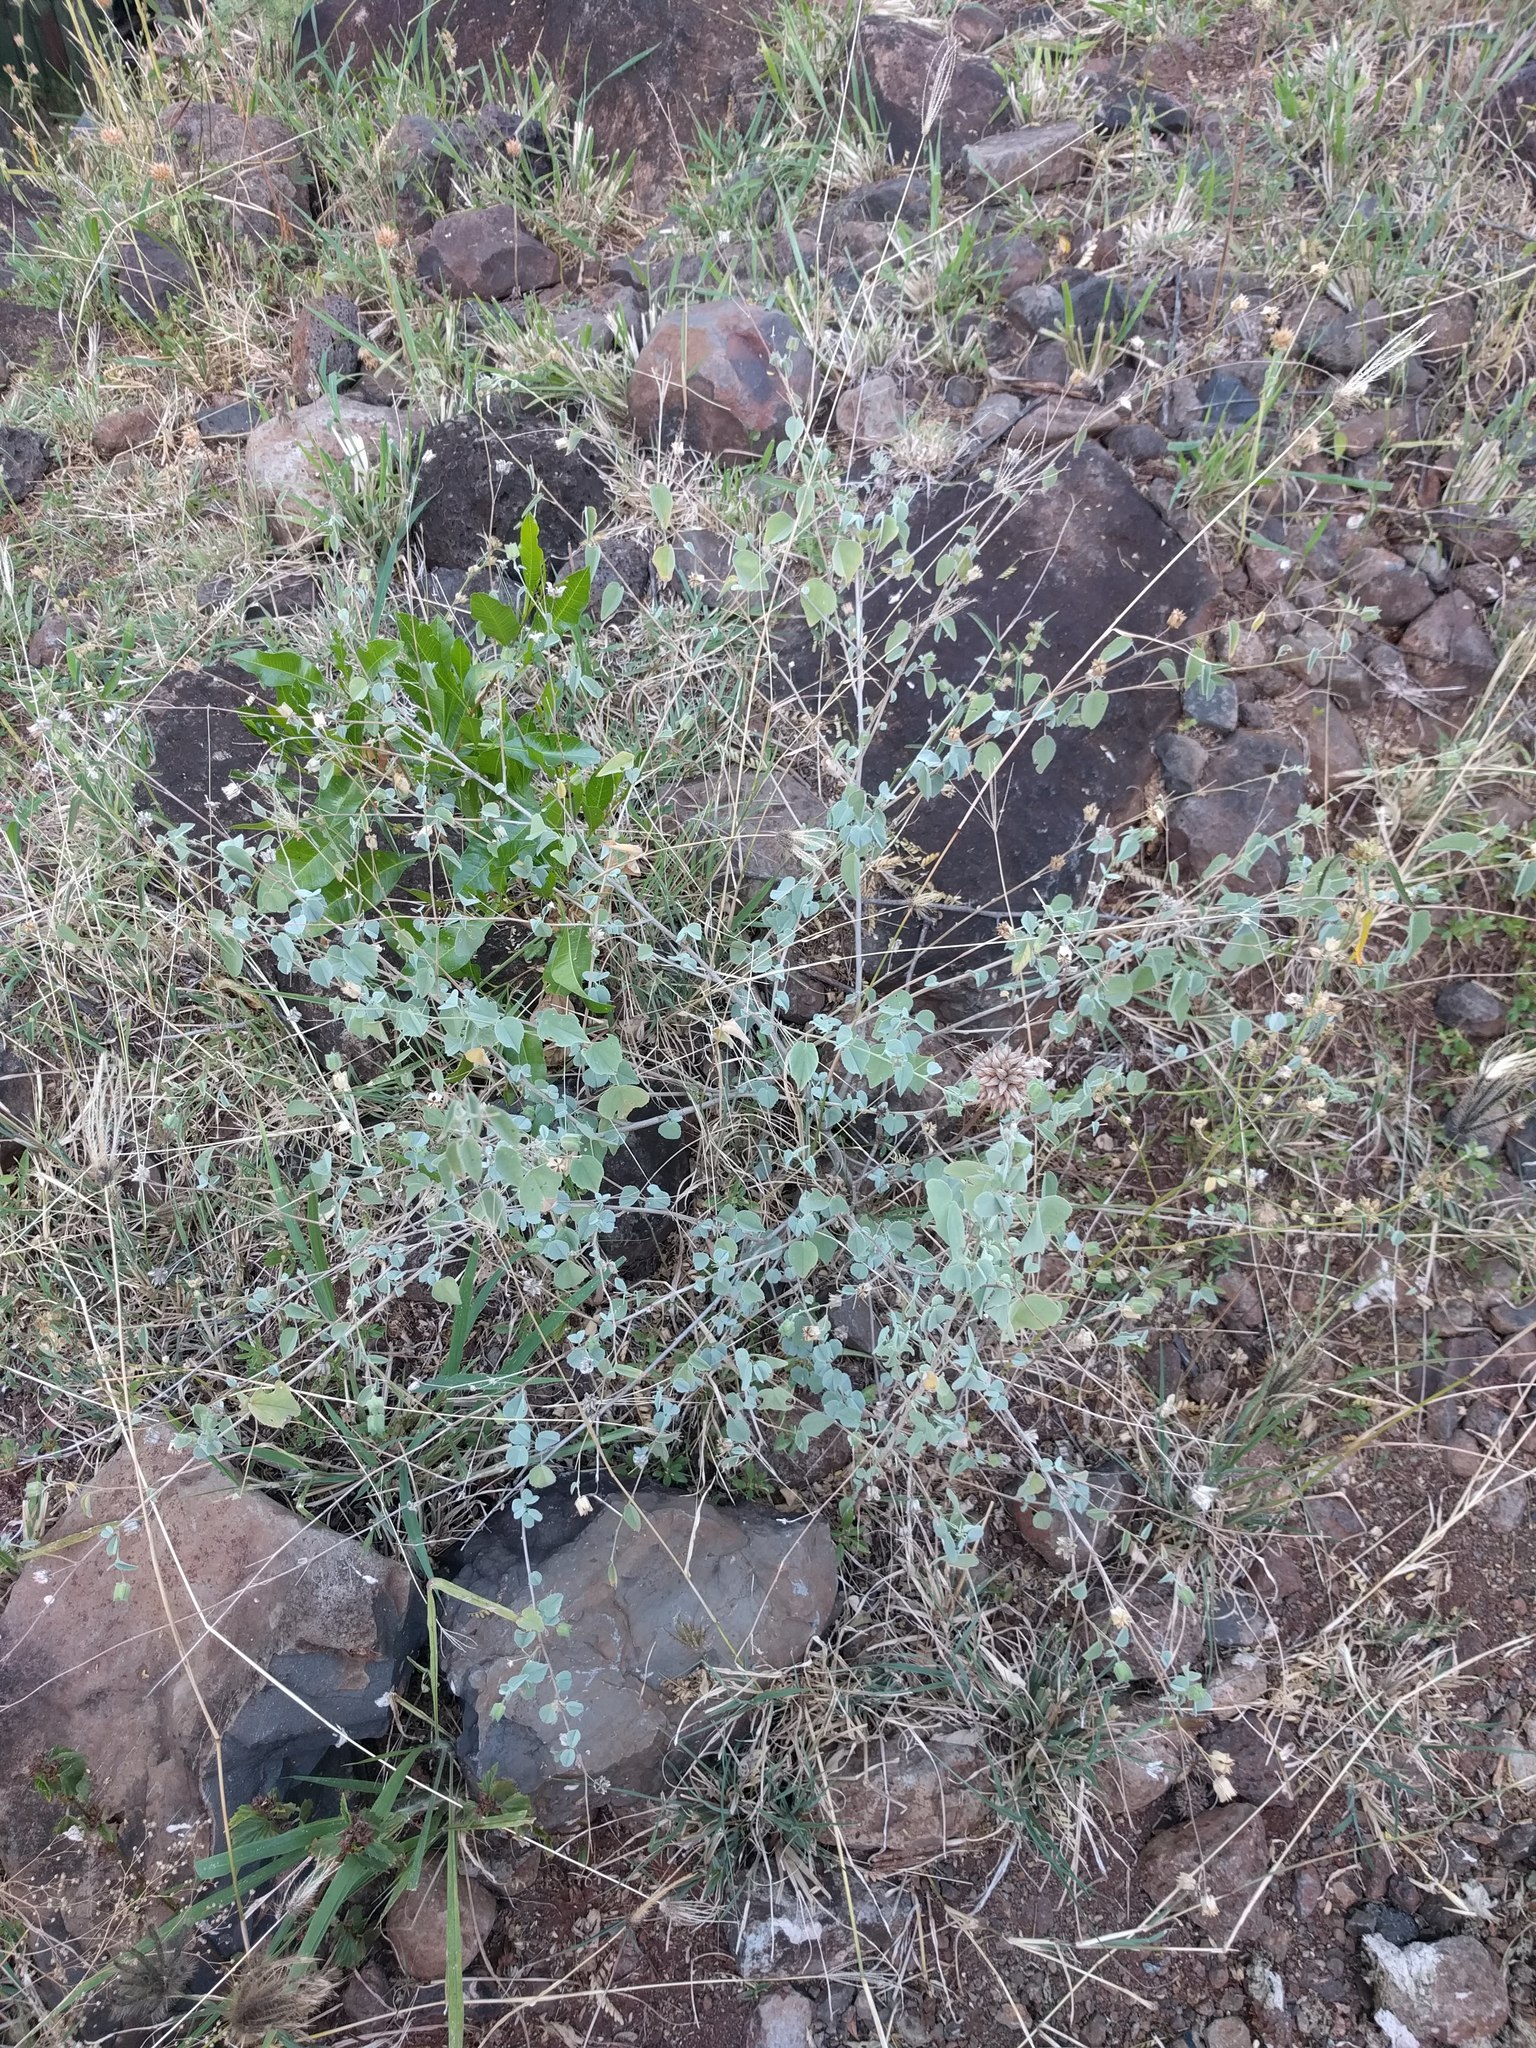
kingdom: Plantae
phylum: Tracheophyta
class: Magnoliopsida
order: Malvales
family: Malvaceae
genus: Abutilon
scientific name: Abutilon incanum
